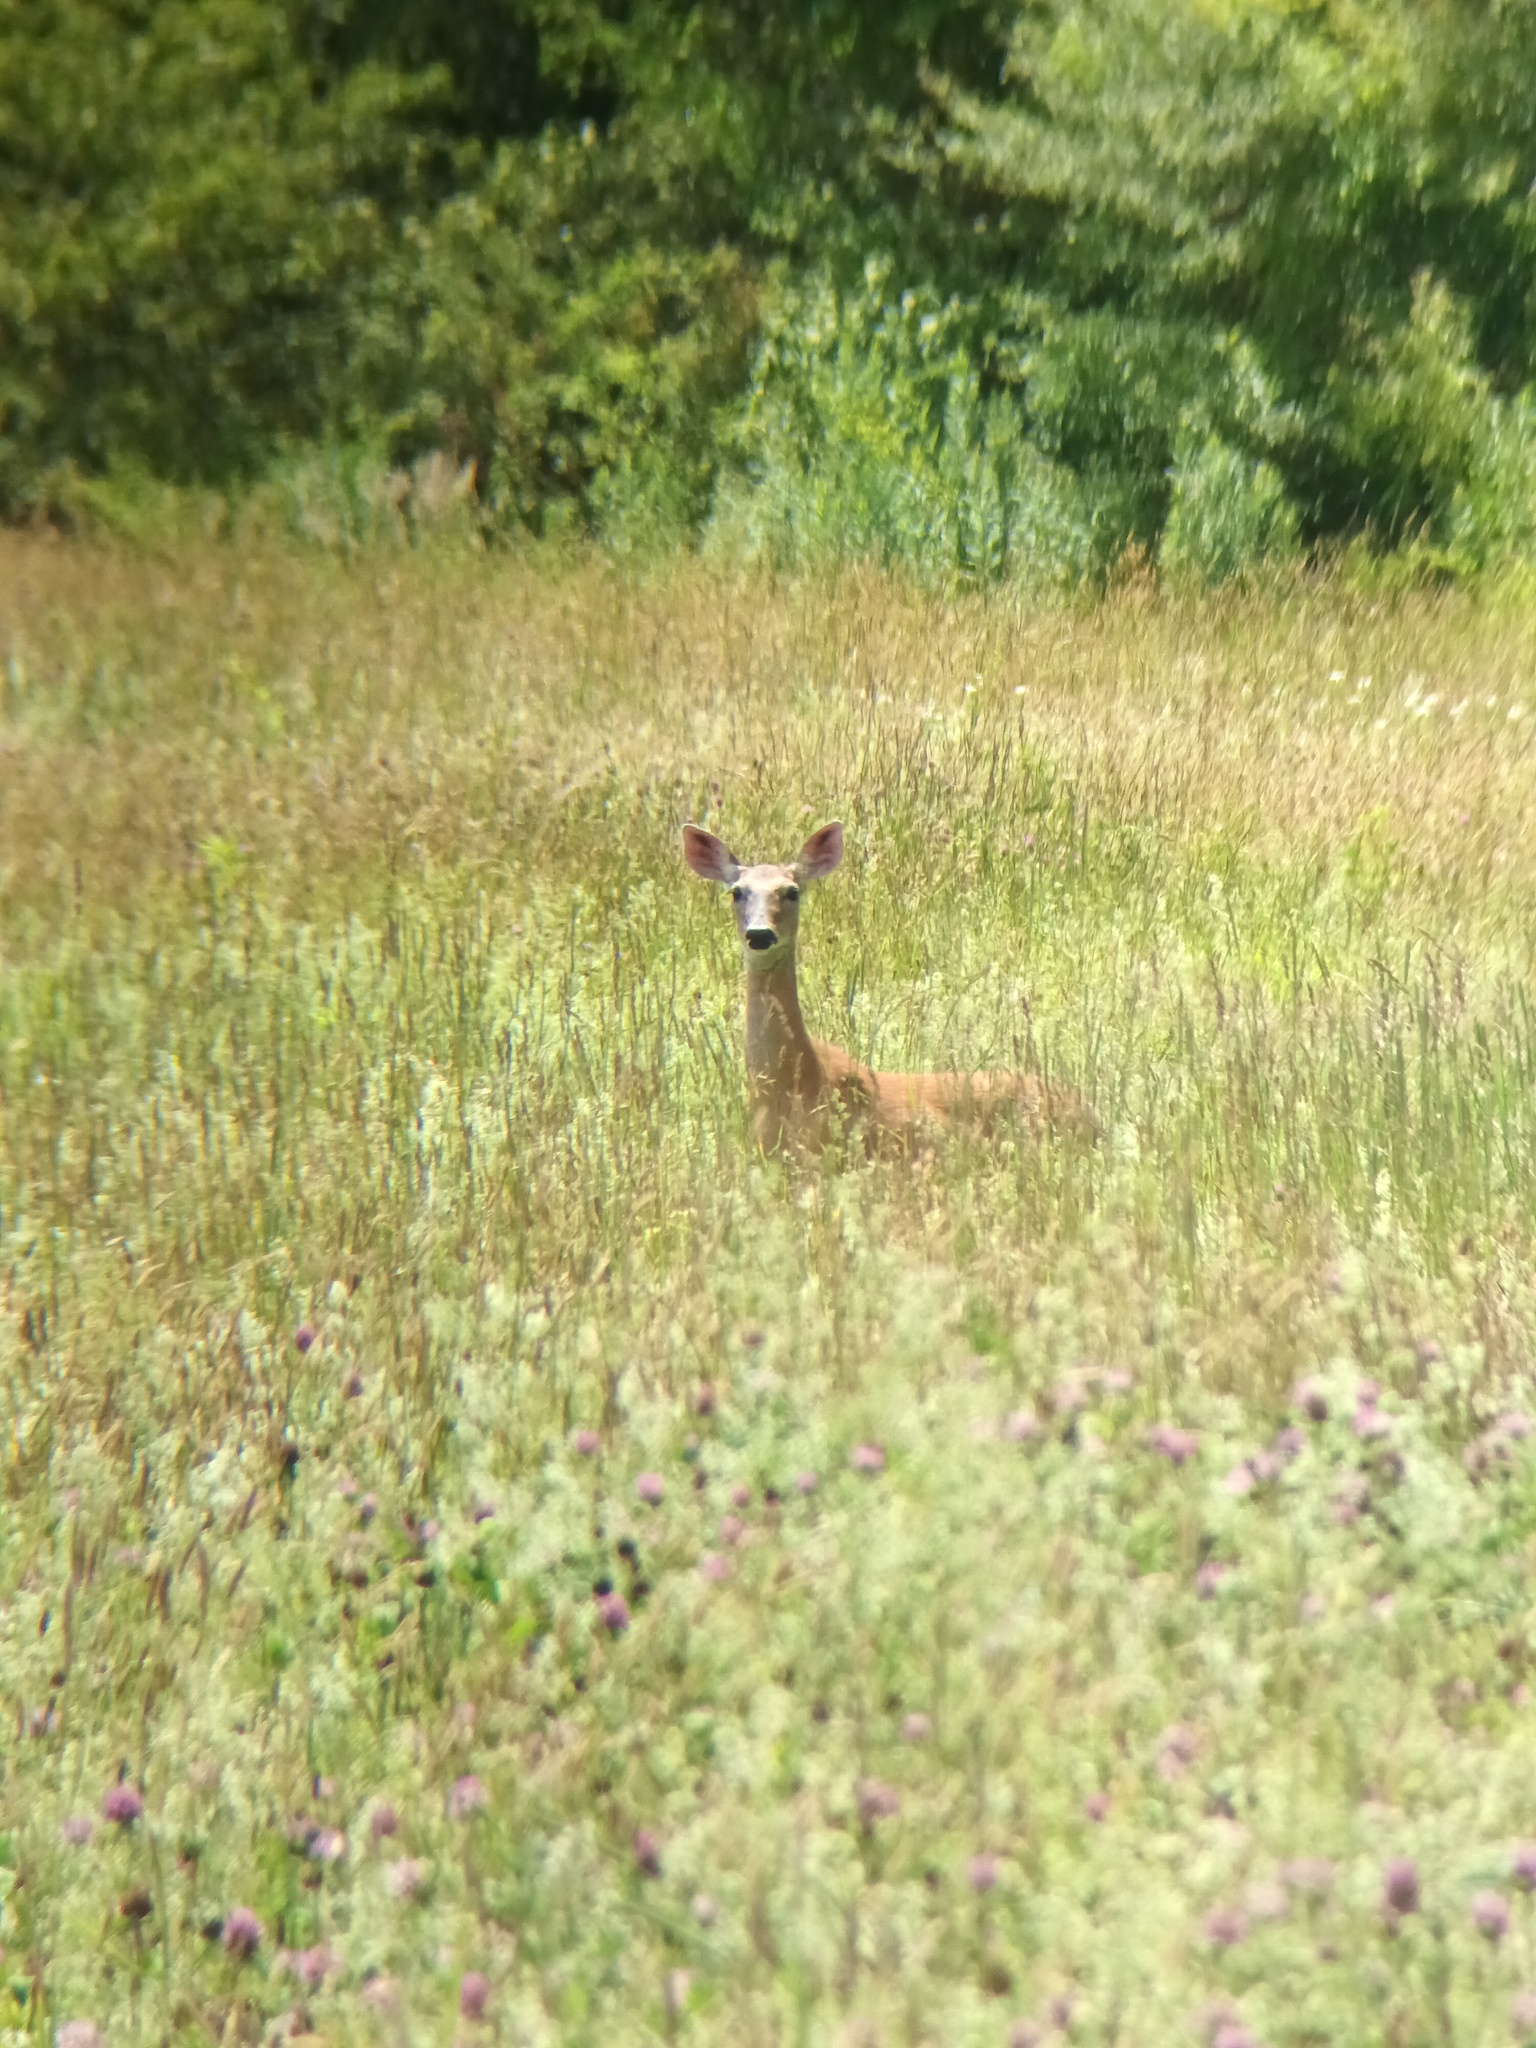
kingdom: Animalia
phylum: Chordata
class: Mammalia
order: Artiodactyla
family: Cervidae
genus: Odocoileus
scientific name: Odocoileus virginianus
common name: White-tailed deer
